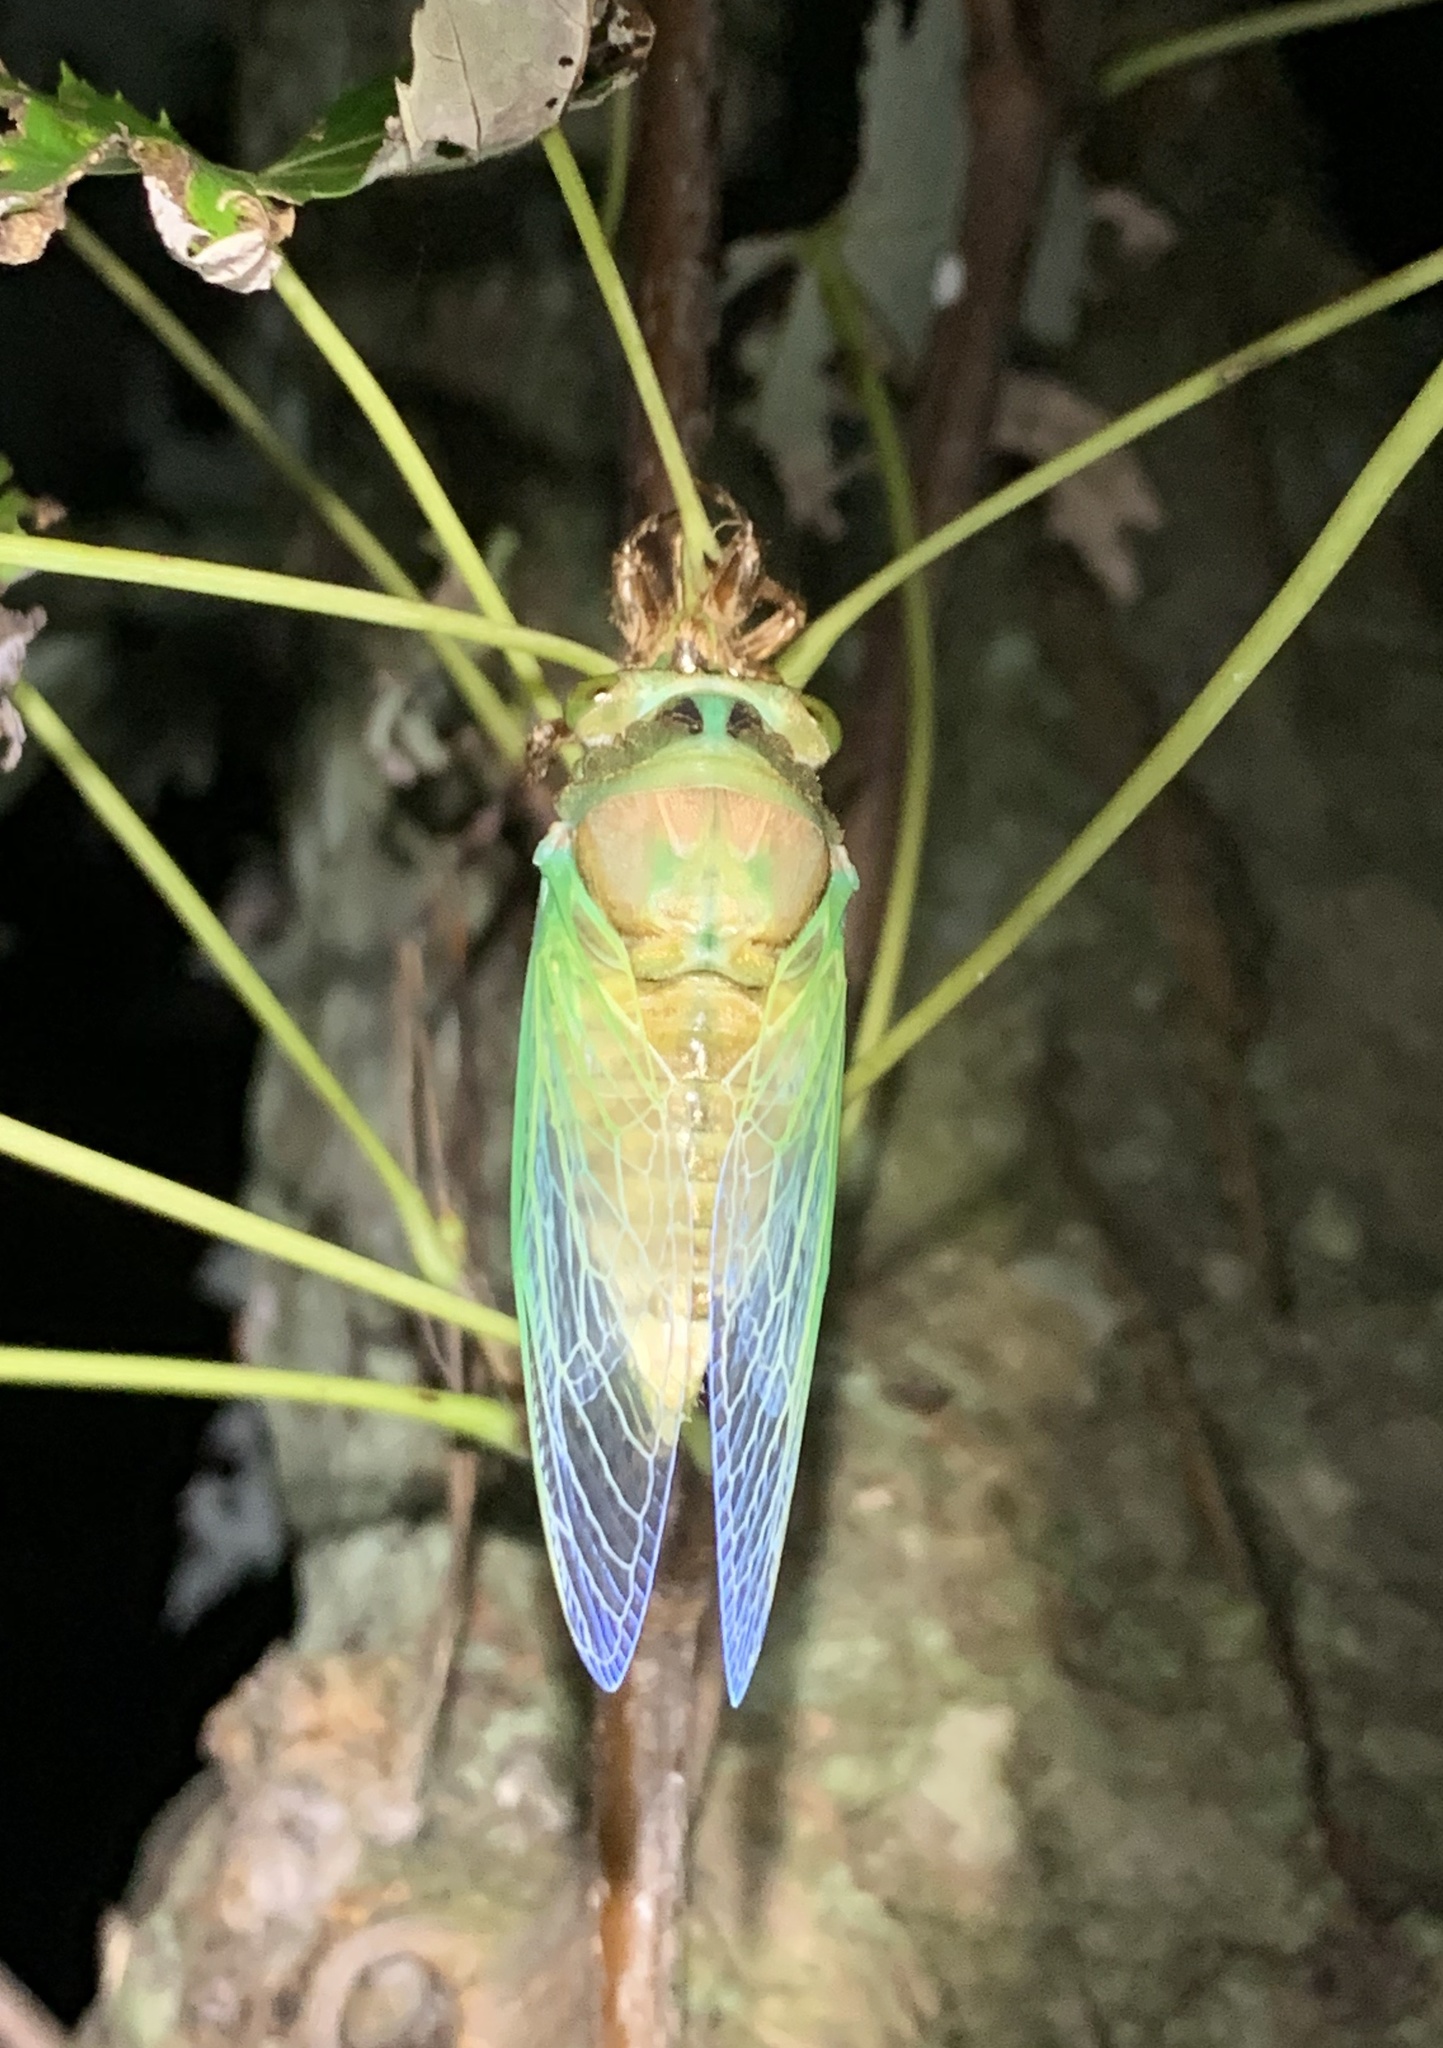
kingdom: Animalia
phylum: Arthropoda
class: Insecta
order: Hemiptera
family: Cicadidae
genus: Neotibicen
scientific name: Neotibicen tibicen
